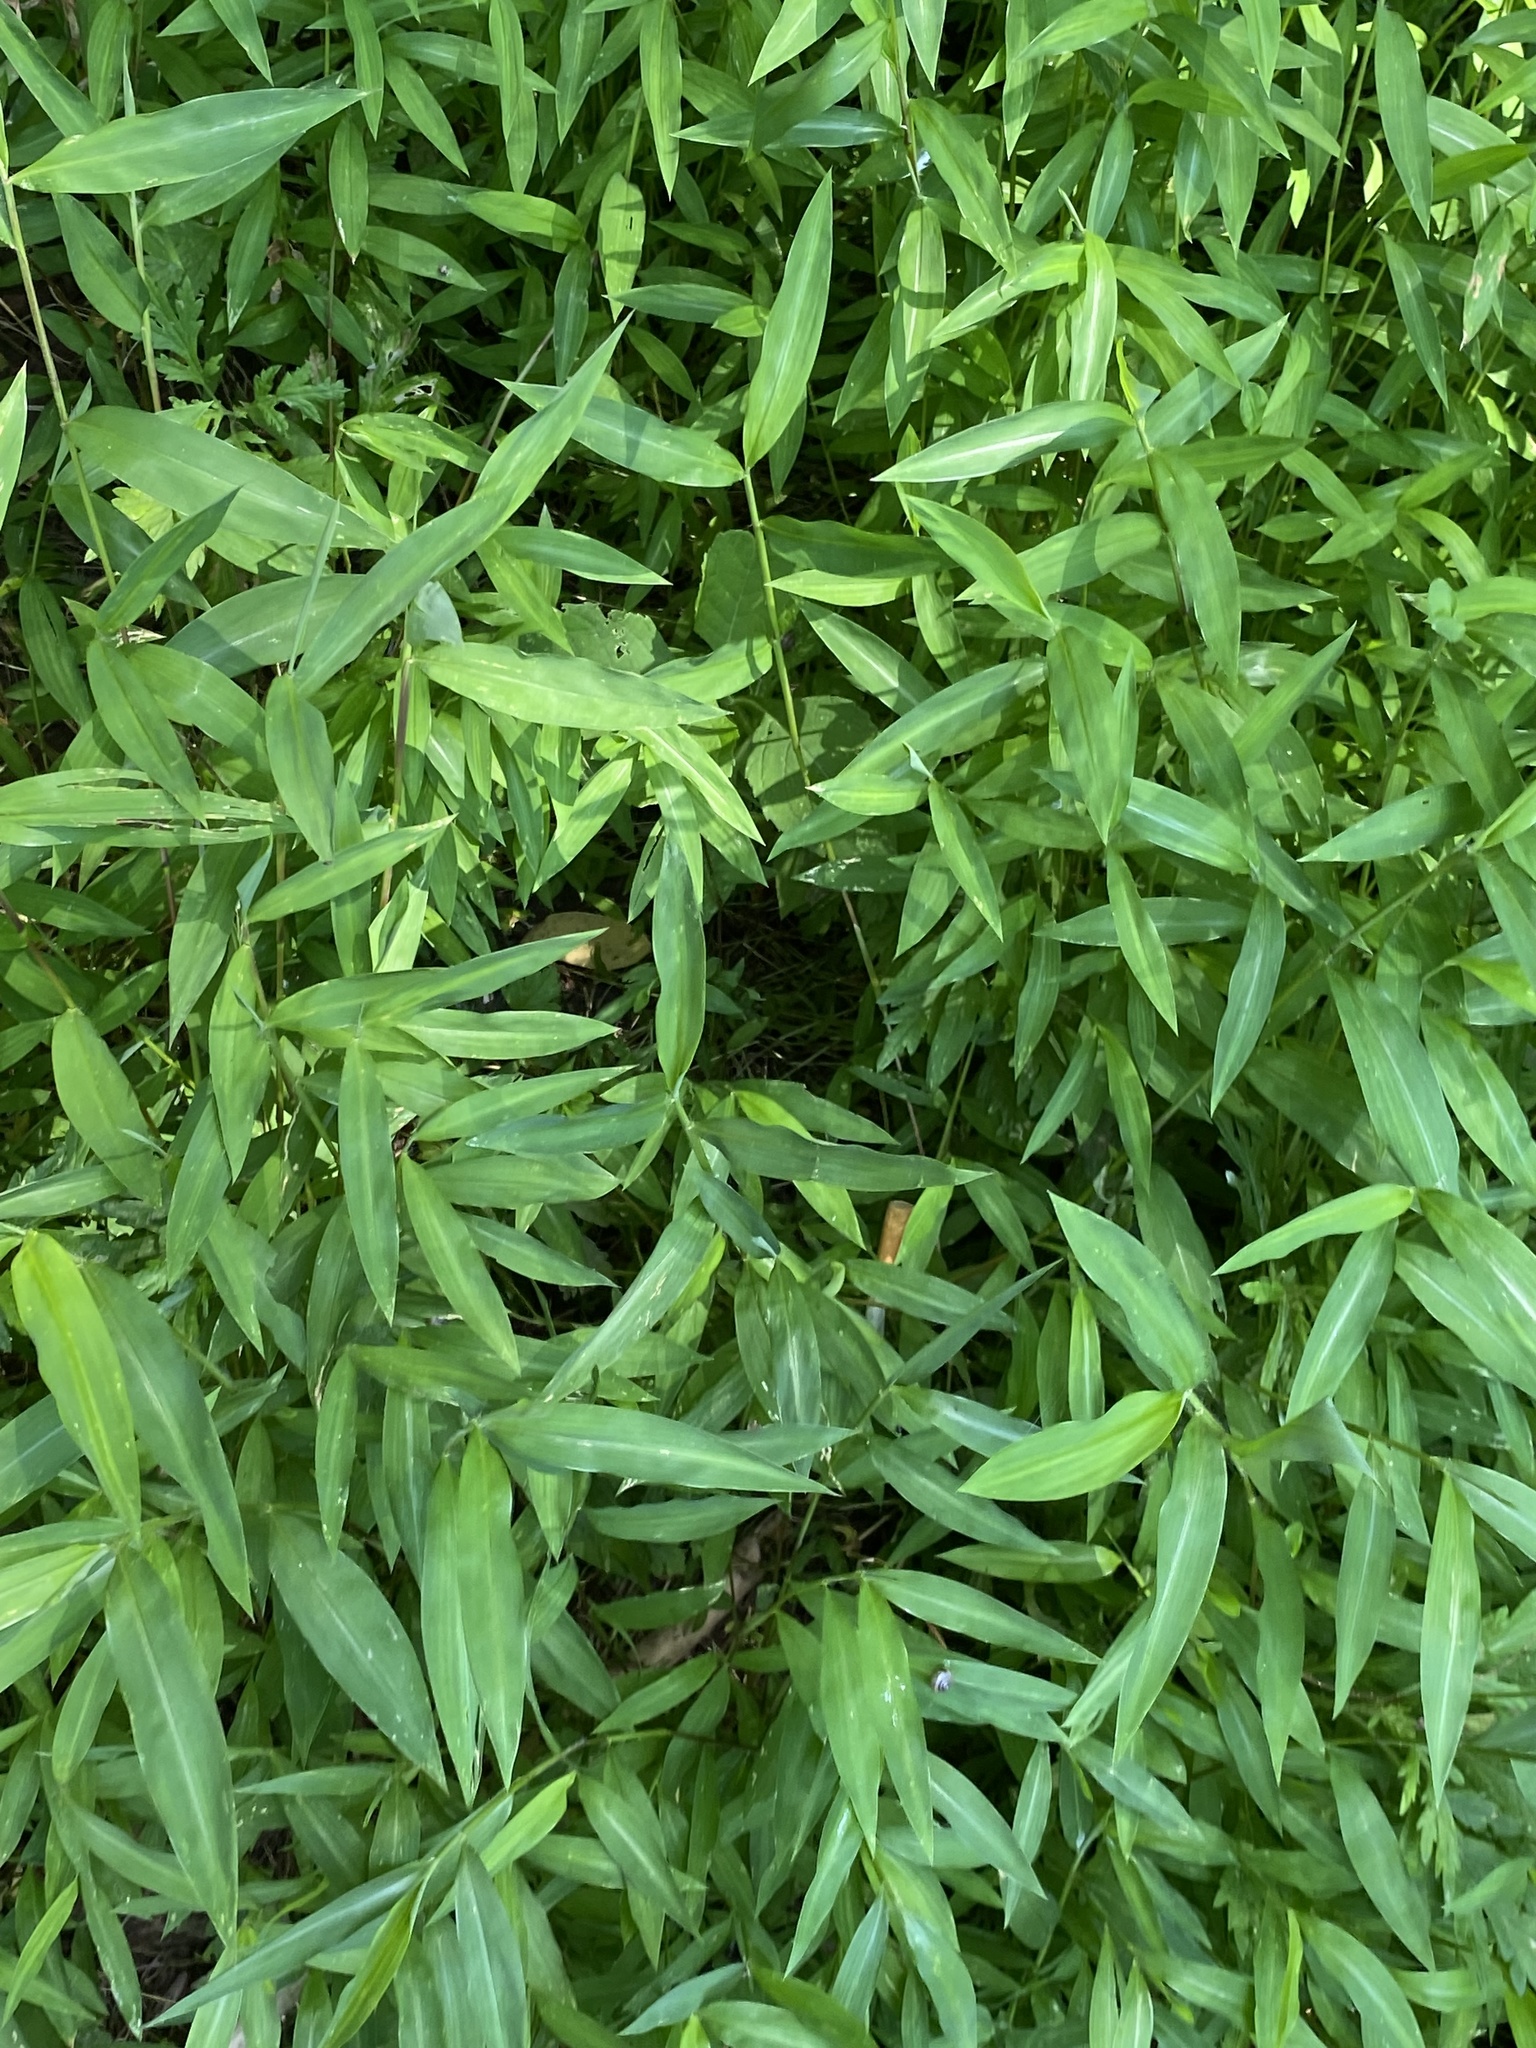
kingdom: Plantae
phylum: Tracheophyta
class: Liliopsida
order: Poales
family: Poaceae
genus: Microstegium
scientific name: Microstegium vimineum
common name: Japanese stiltgrass
